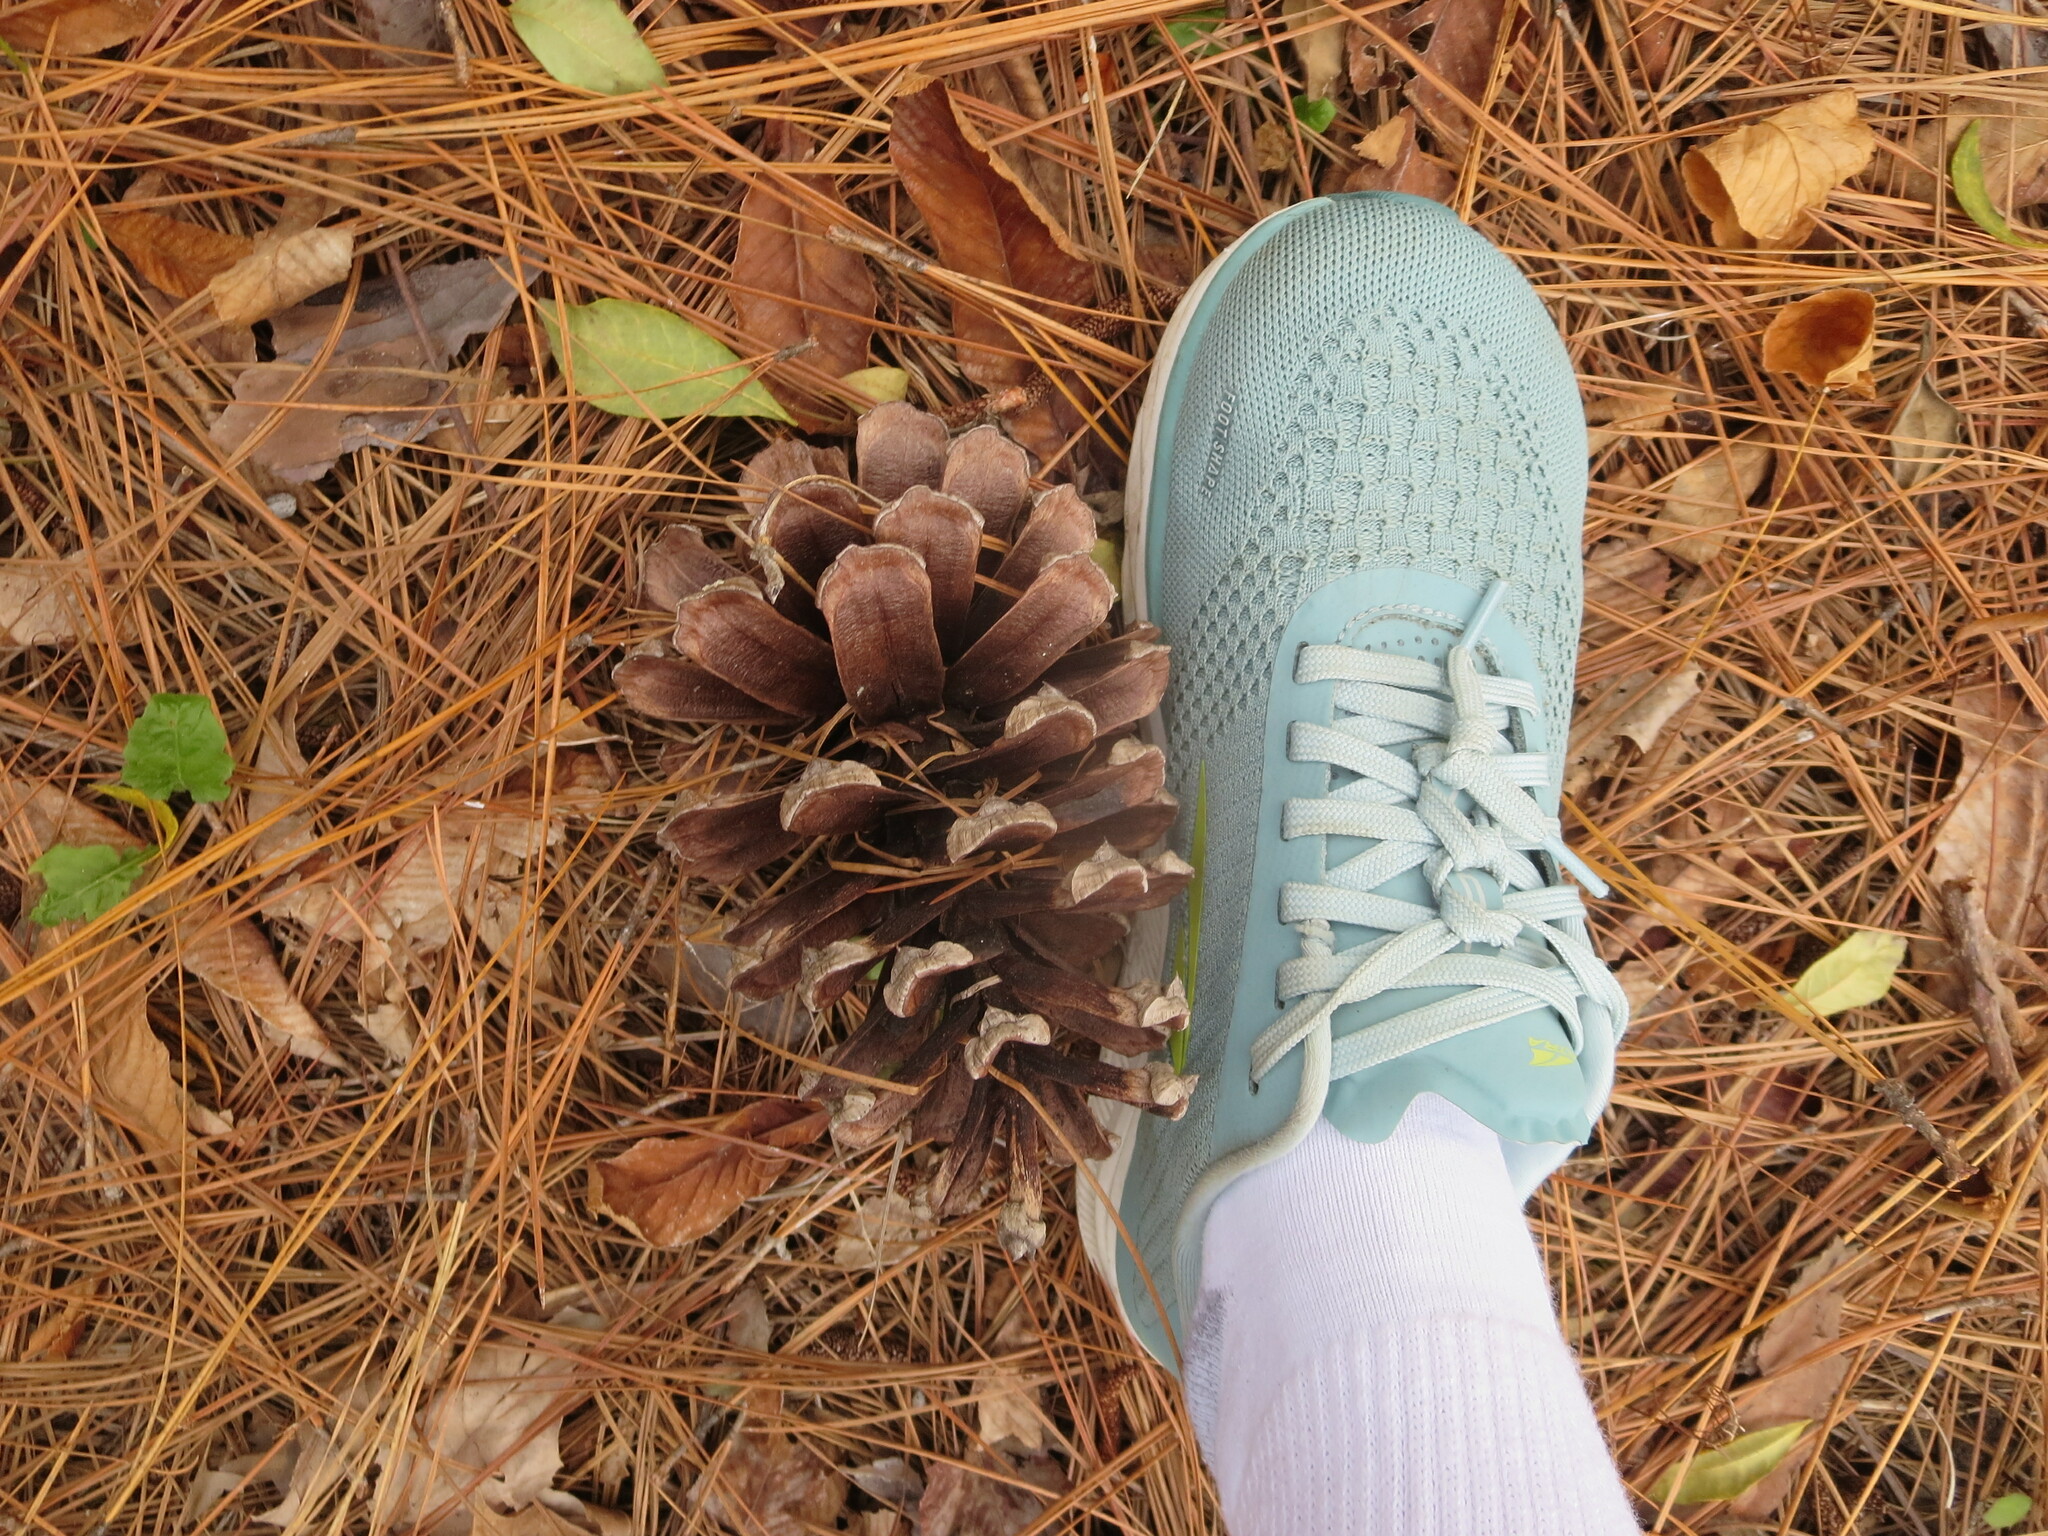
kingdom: Plantae
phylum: Tracheophyta
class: Pinopsida
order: Pinales
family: Pinaceae
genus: Pinus
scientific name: Pinus palustris
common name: Longleaf pine
